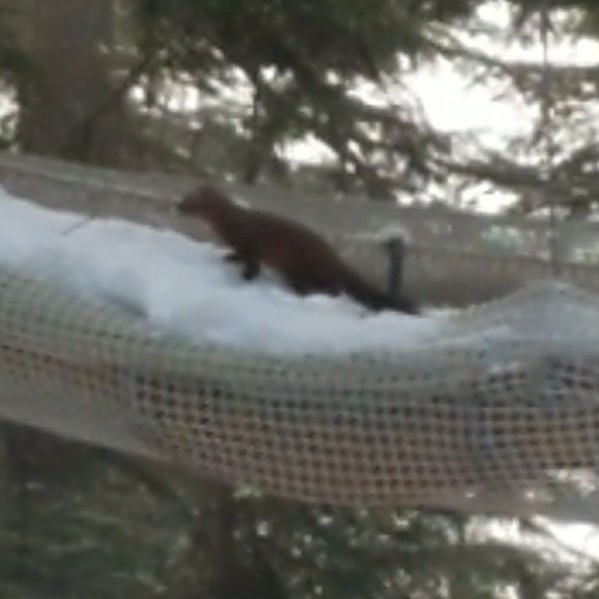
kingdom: Animalia
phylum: Chordata
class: Mammalia
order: Carnivora
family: Mustelidae
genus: Martes
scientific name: Martes caurina
